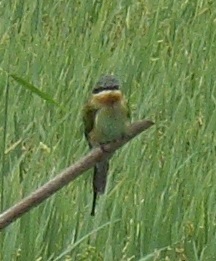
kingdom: Animalia
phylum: Chordata
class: Aves
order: Coraciiformes
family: Meropidae
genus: Merops
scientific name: Merops philippinus
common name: Blue-tailed bee-eater
